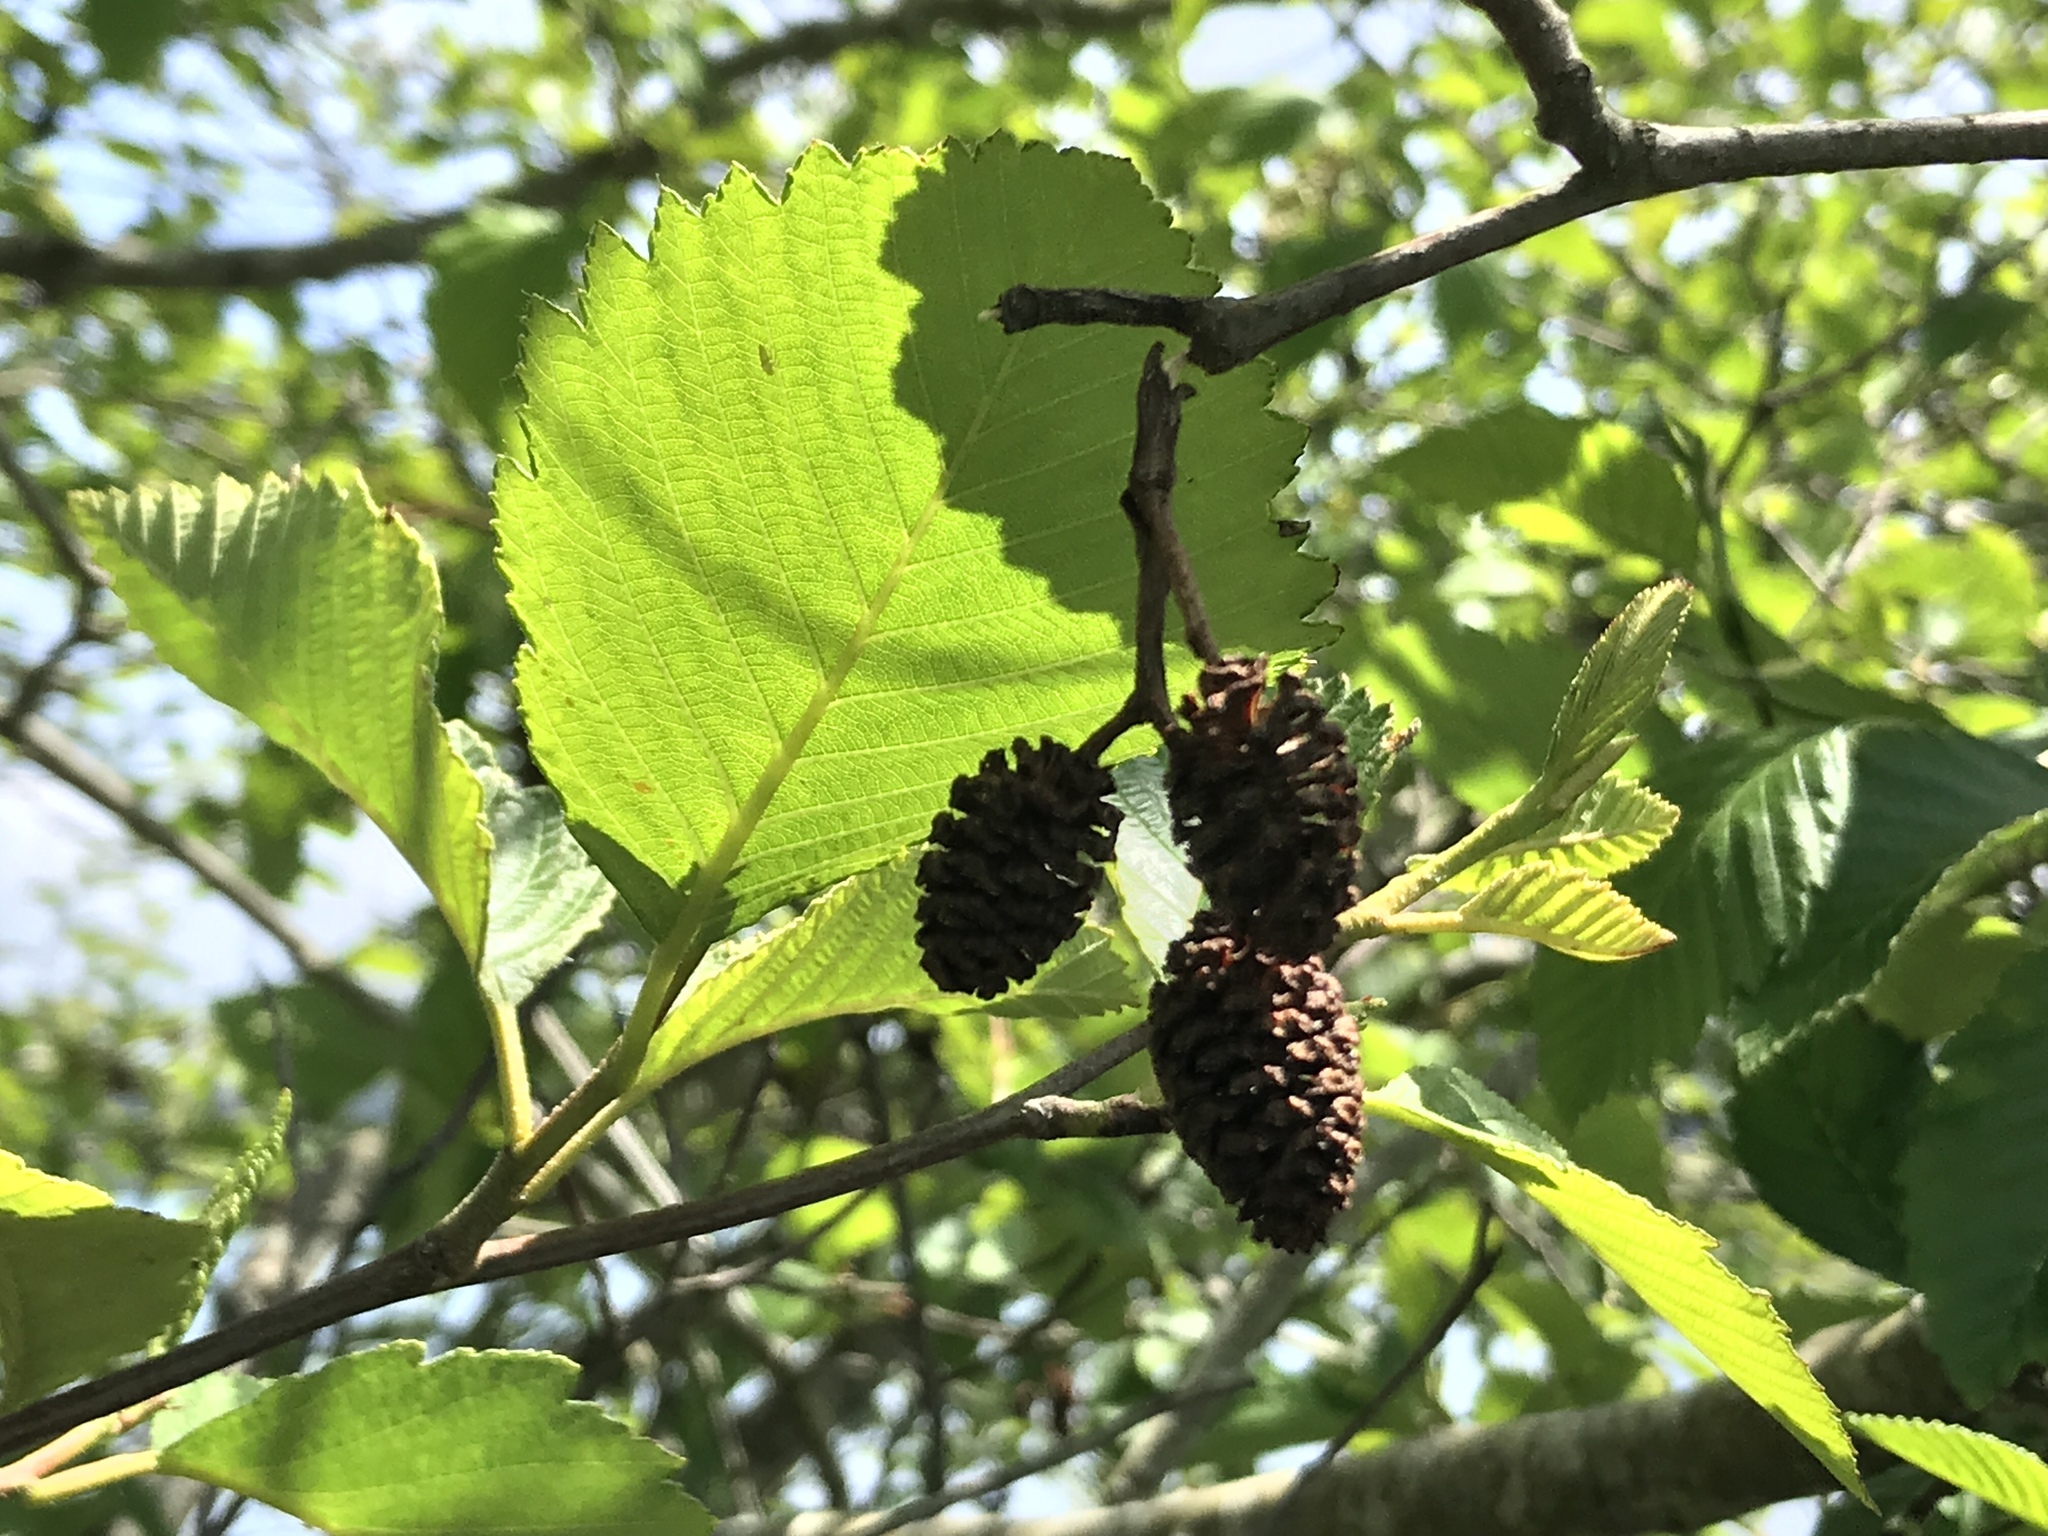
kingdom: Plantae
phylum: Tracheophyta
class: Magnoliopsida
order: Fagales
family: Betulaceae
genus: Alnus
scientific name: Alnus rubra
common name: Red alder
